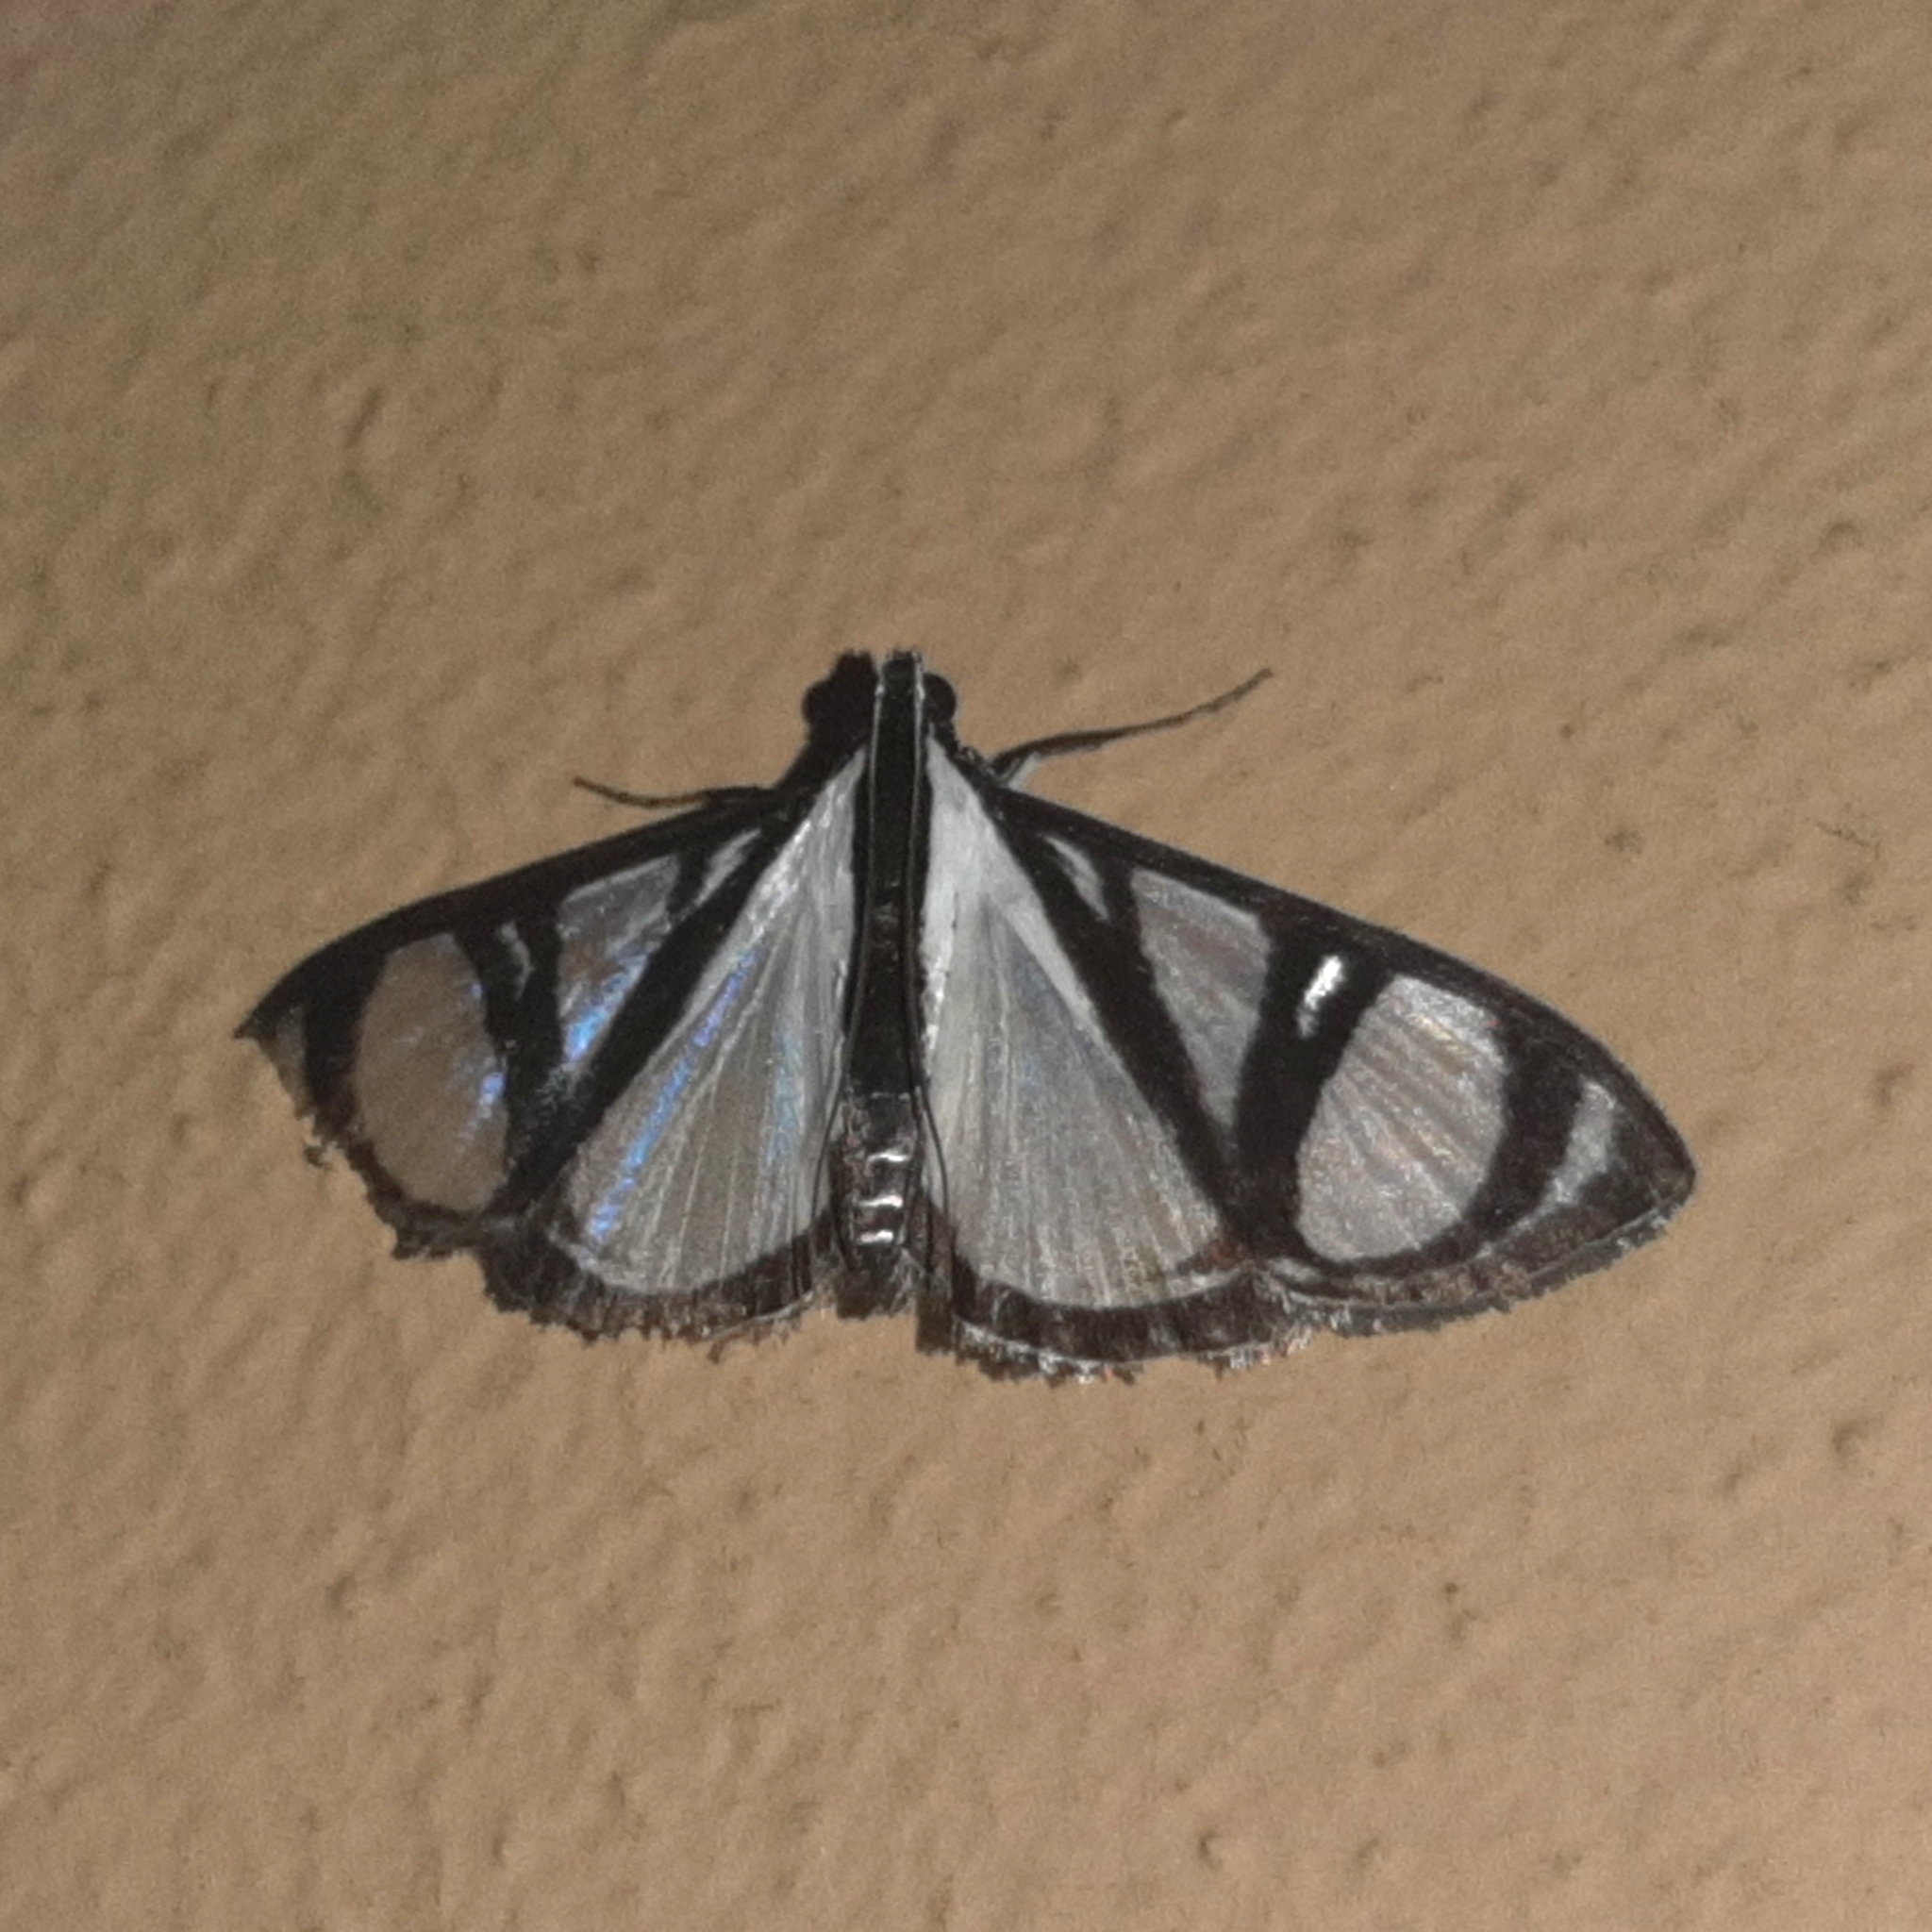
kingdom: Animalia
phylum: Arthropoda
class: Insecta
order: Lepidoptera
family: Crambidae
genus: Glyphodes
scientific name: Glyphodes confinis
